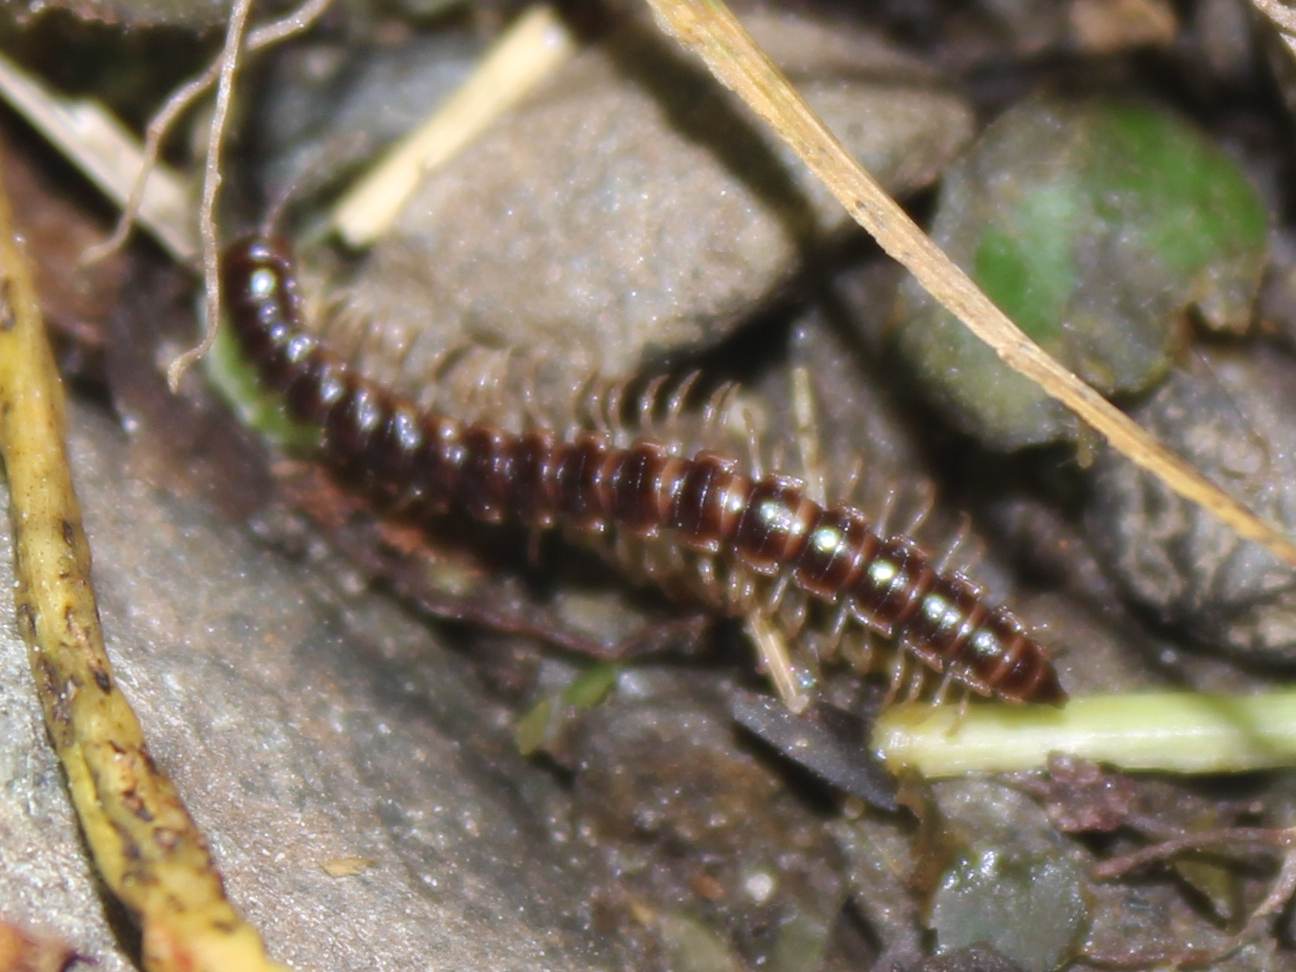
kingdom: Animalia
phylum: Arthropoda
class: Diplopoda
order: Polydesmida
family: Paradoxosomatidae
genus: Oxidus
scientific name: Oxidus gracilis
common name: Greenhouse millipede
